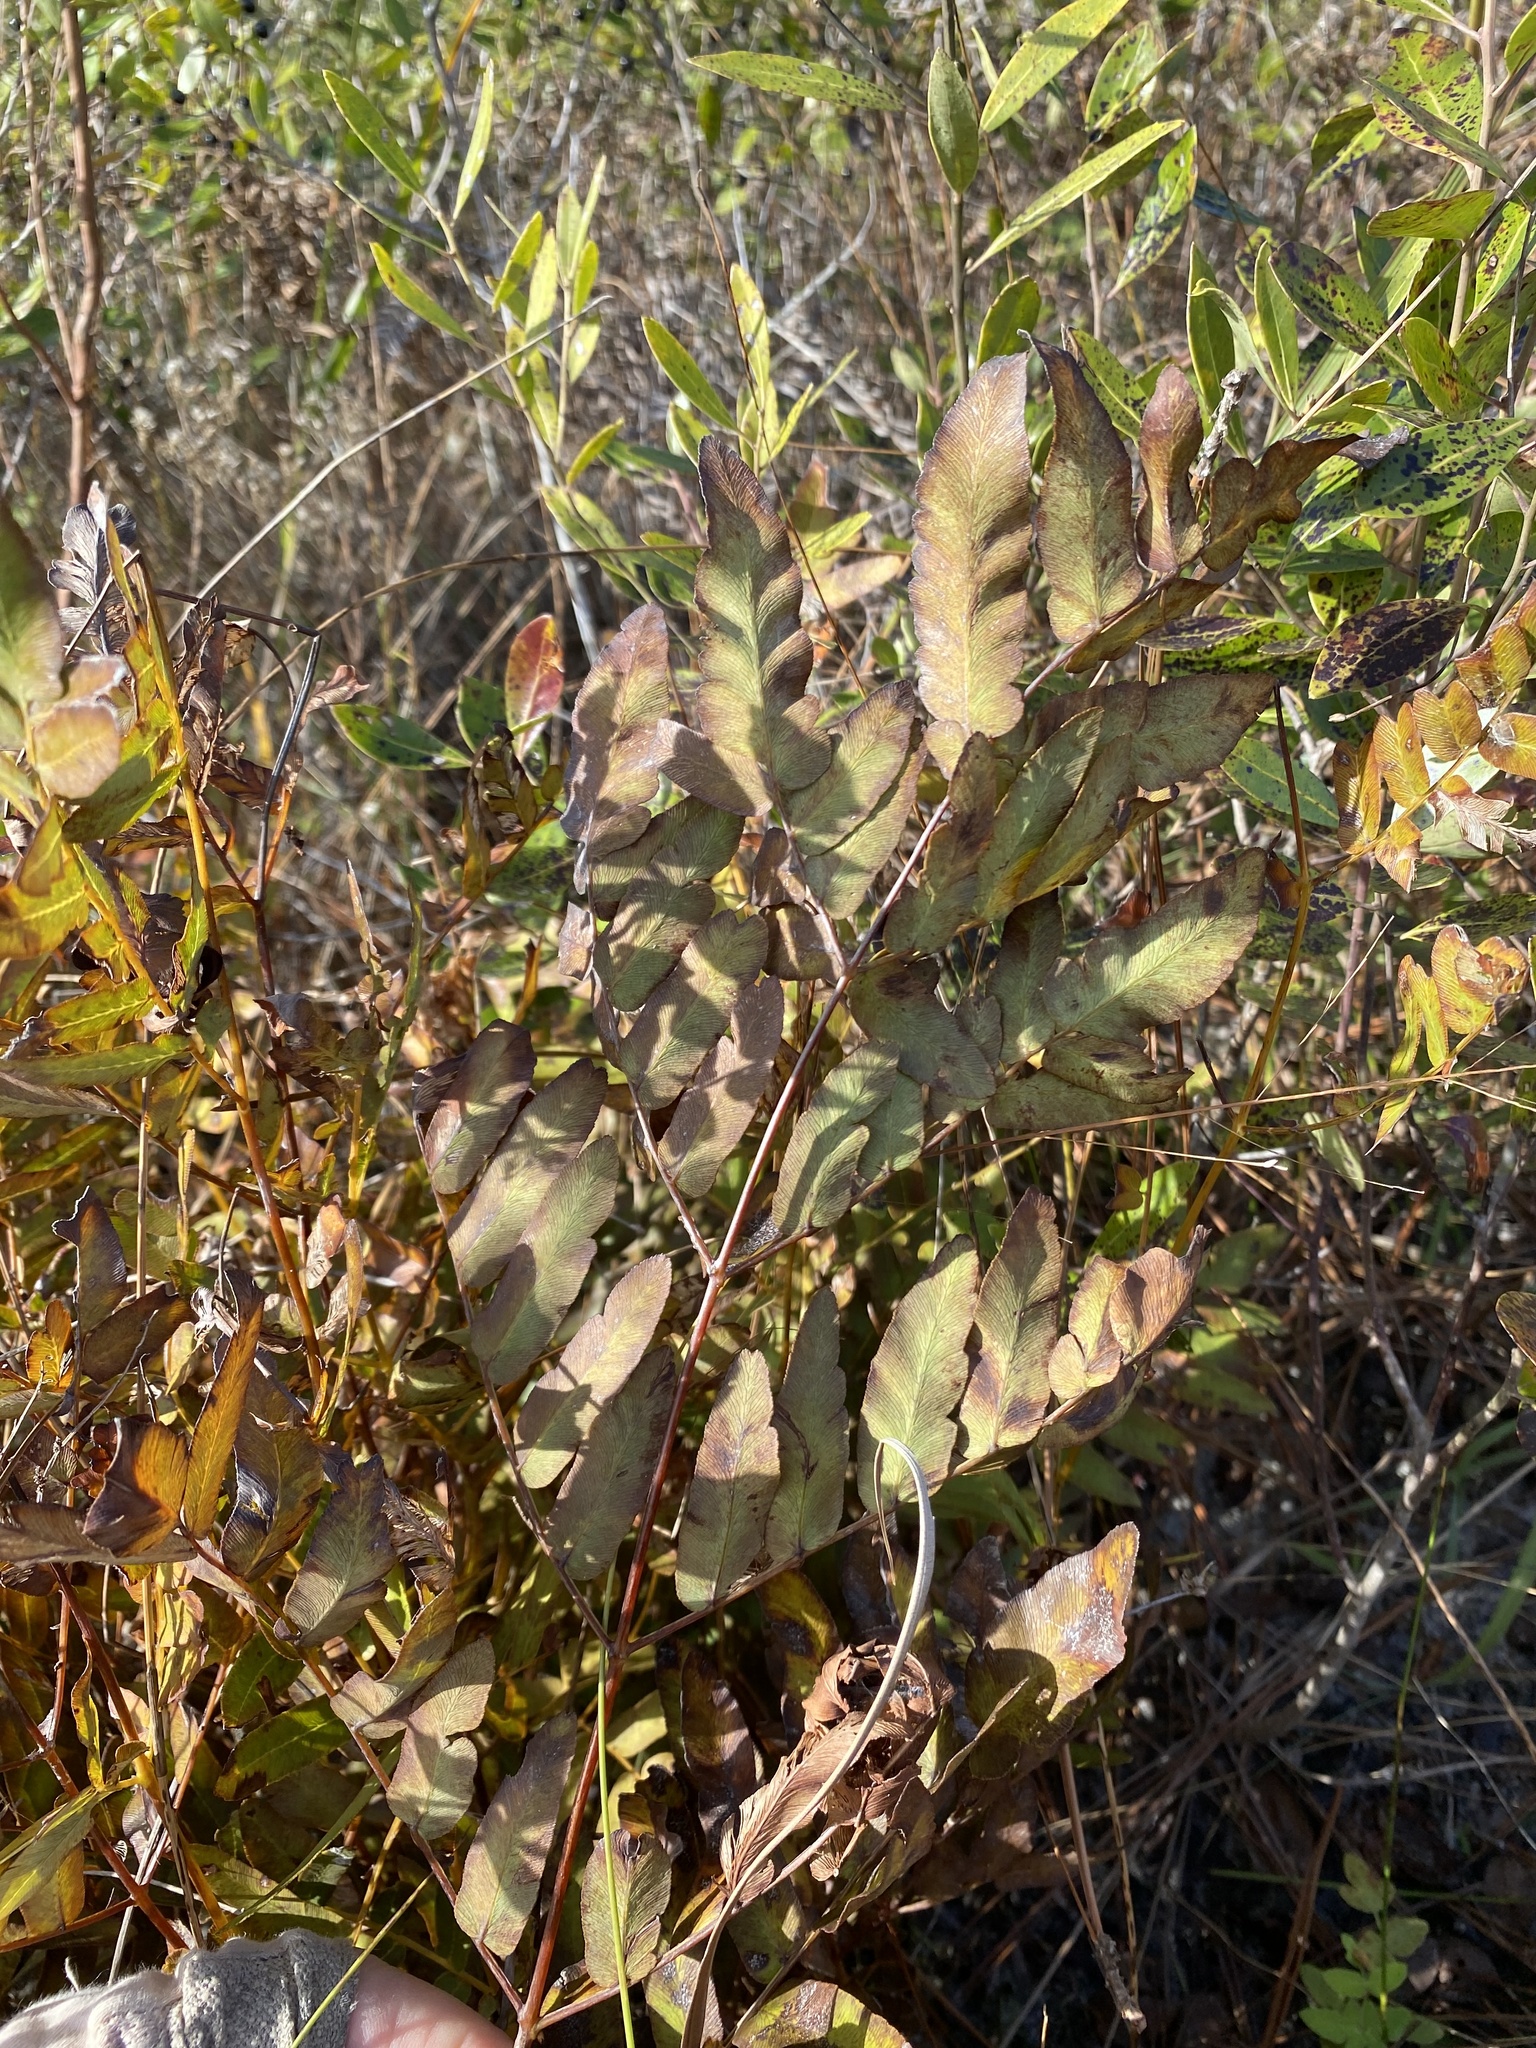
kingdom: Plantae
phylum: Tracheophyta
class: Polypodiopsida
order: Osmundales
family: Osmundaceae
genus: Osmunda
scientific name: Osmunda spectabilis
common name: American royal fern
